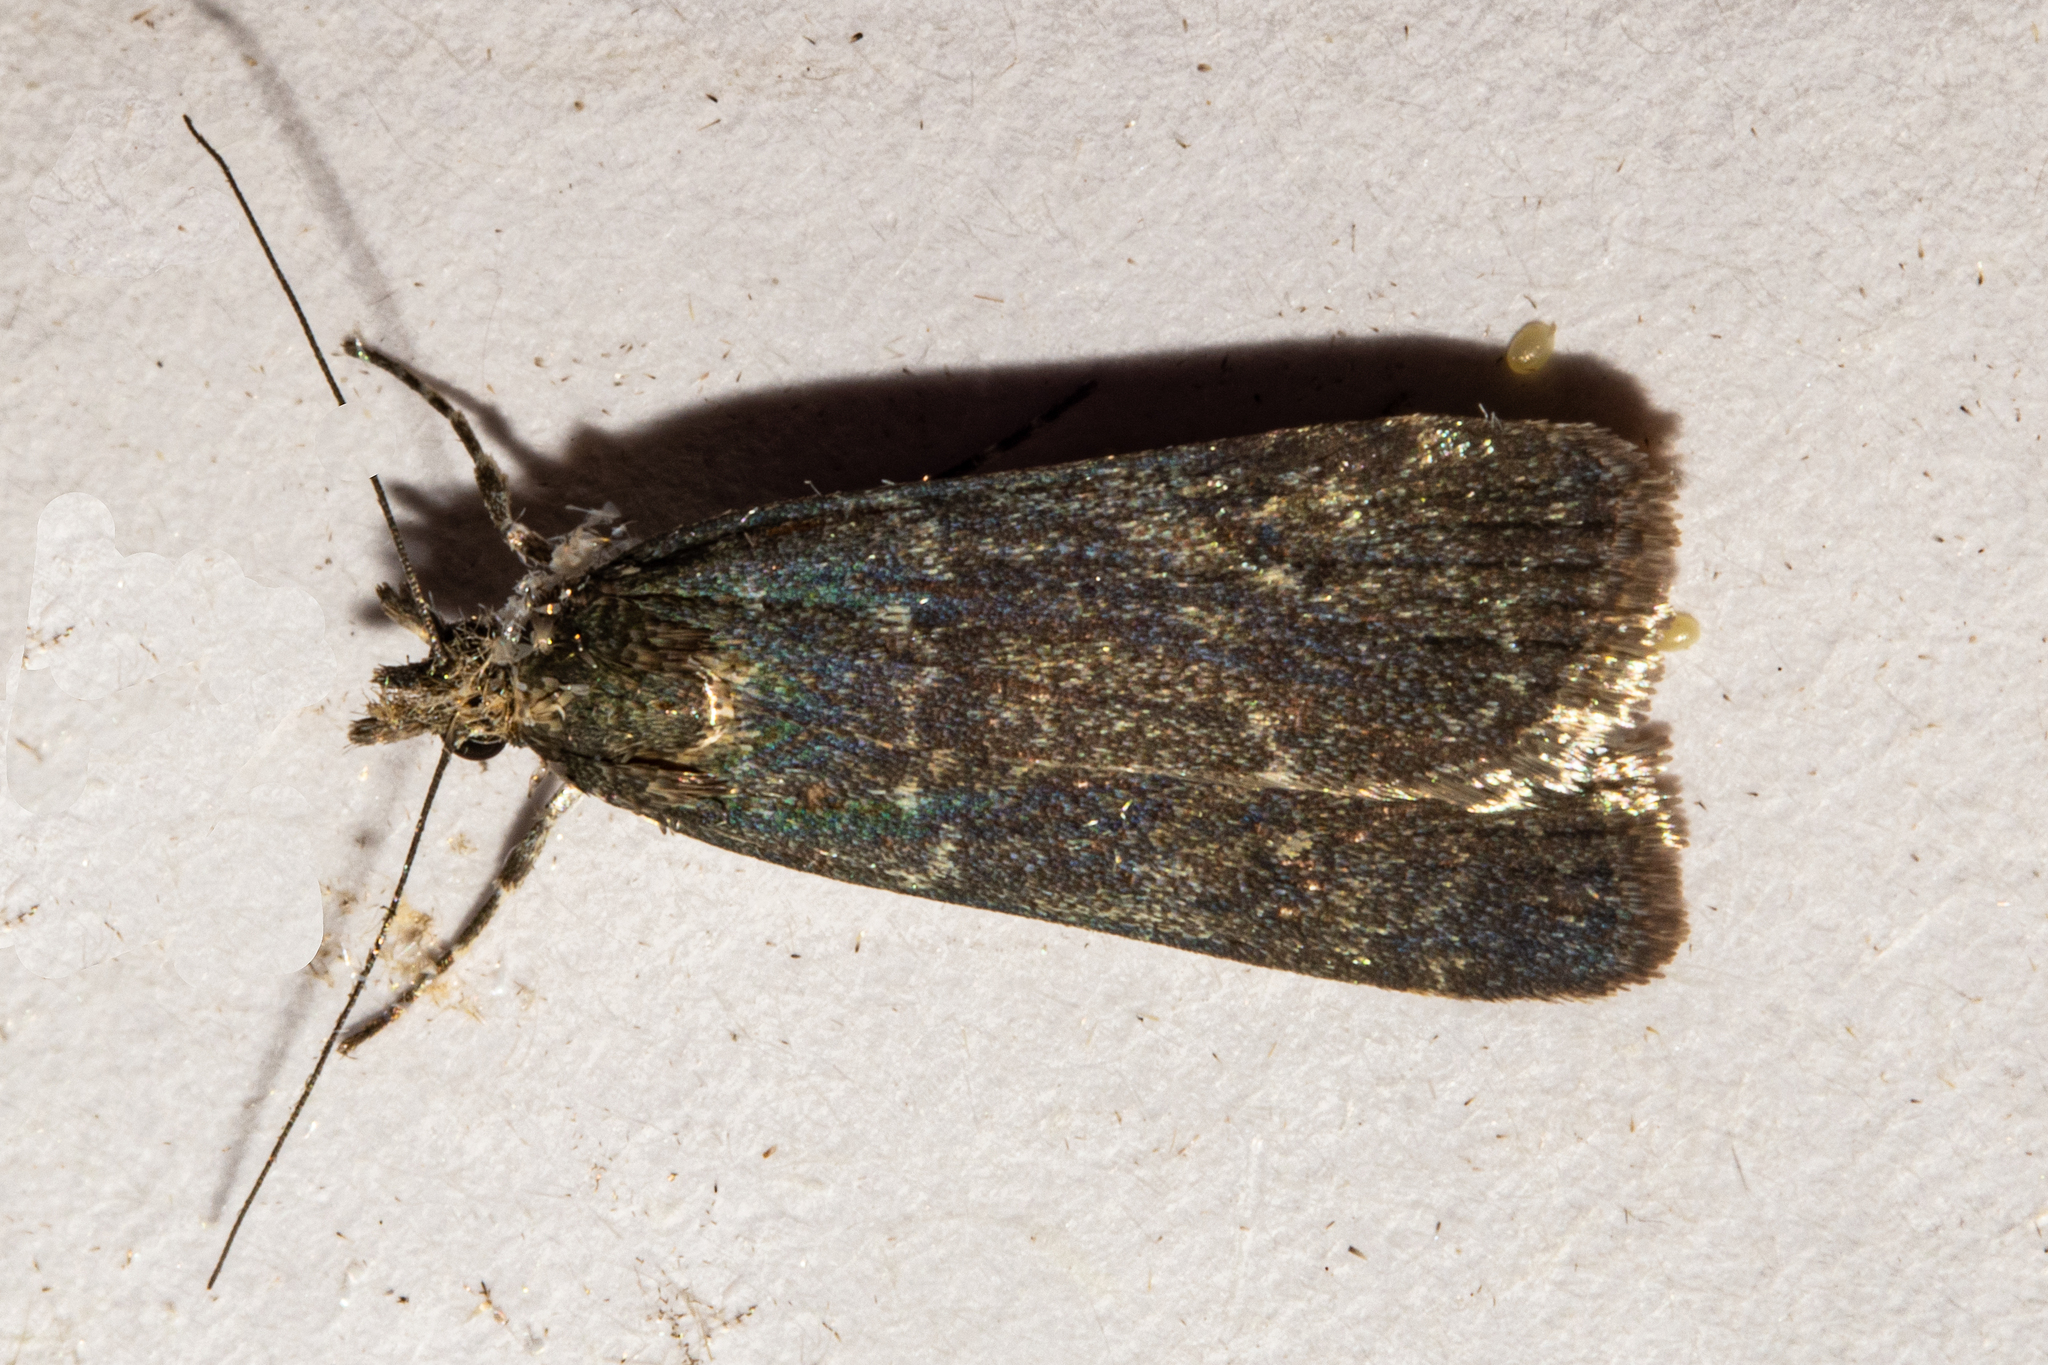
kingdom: Animalia
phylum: Arthropoda
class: Insecta
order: Lepidoptera
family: Crambidae
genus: Eudonia
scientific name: Eudonia cataxesta
